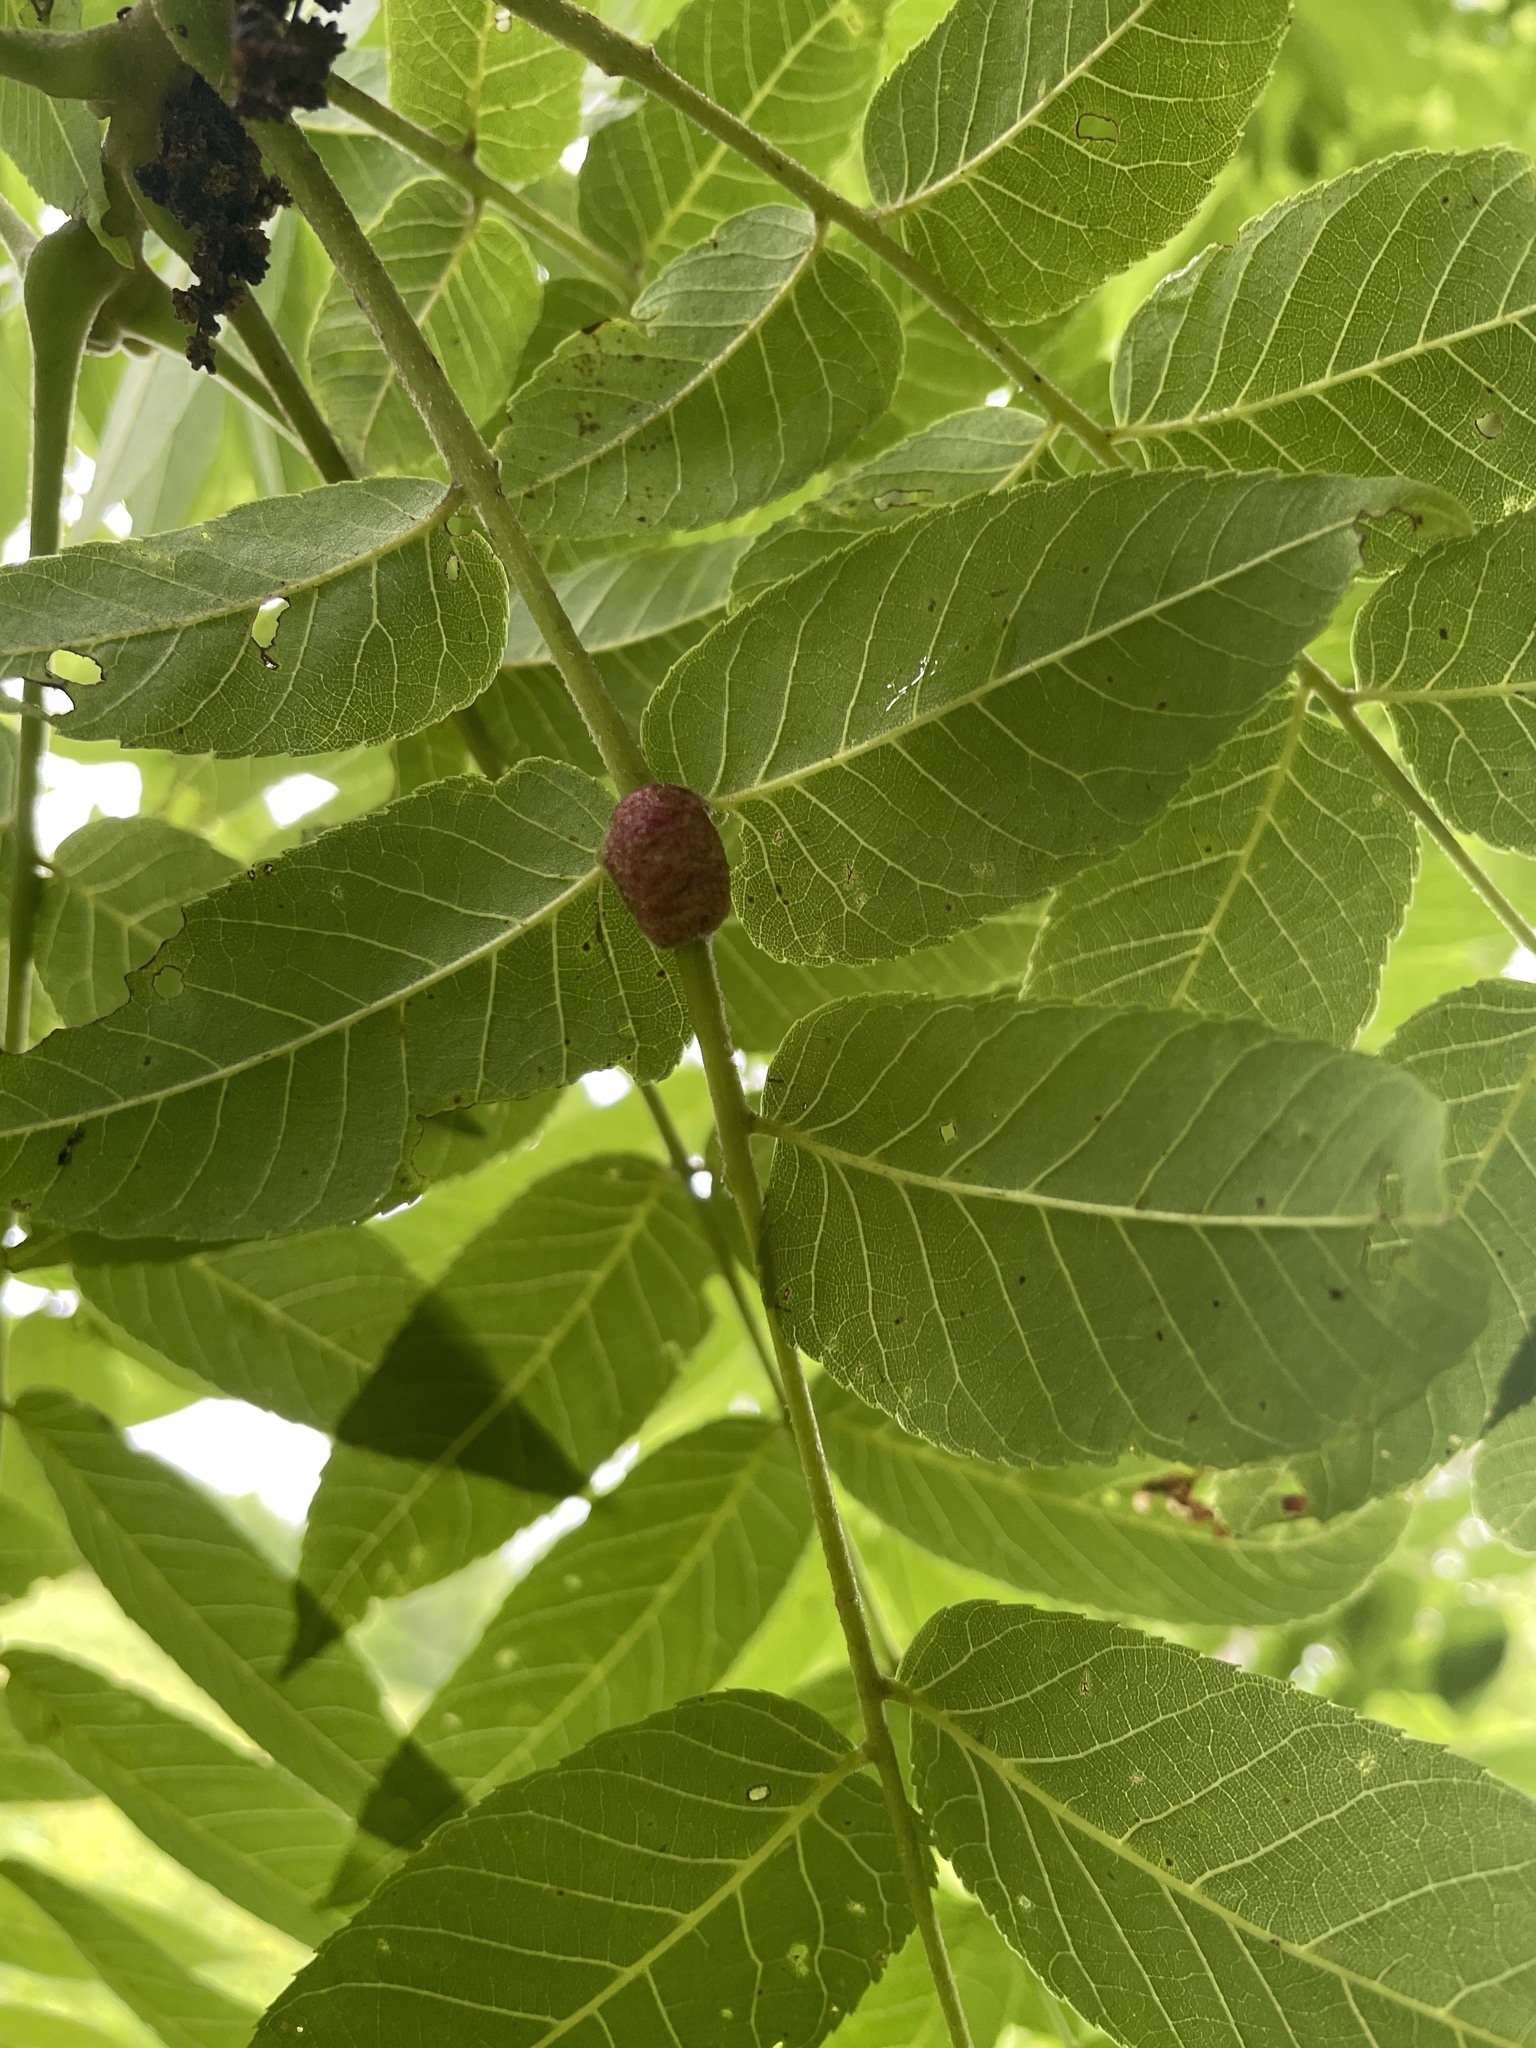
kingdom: Animalia
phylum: Arthropoda
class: Arachnida
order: Trombidiformes
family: Eriophyidae
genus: Aceria
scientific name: Aceria
